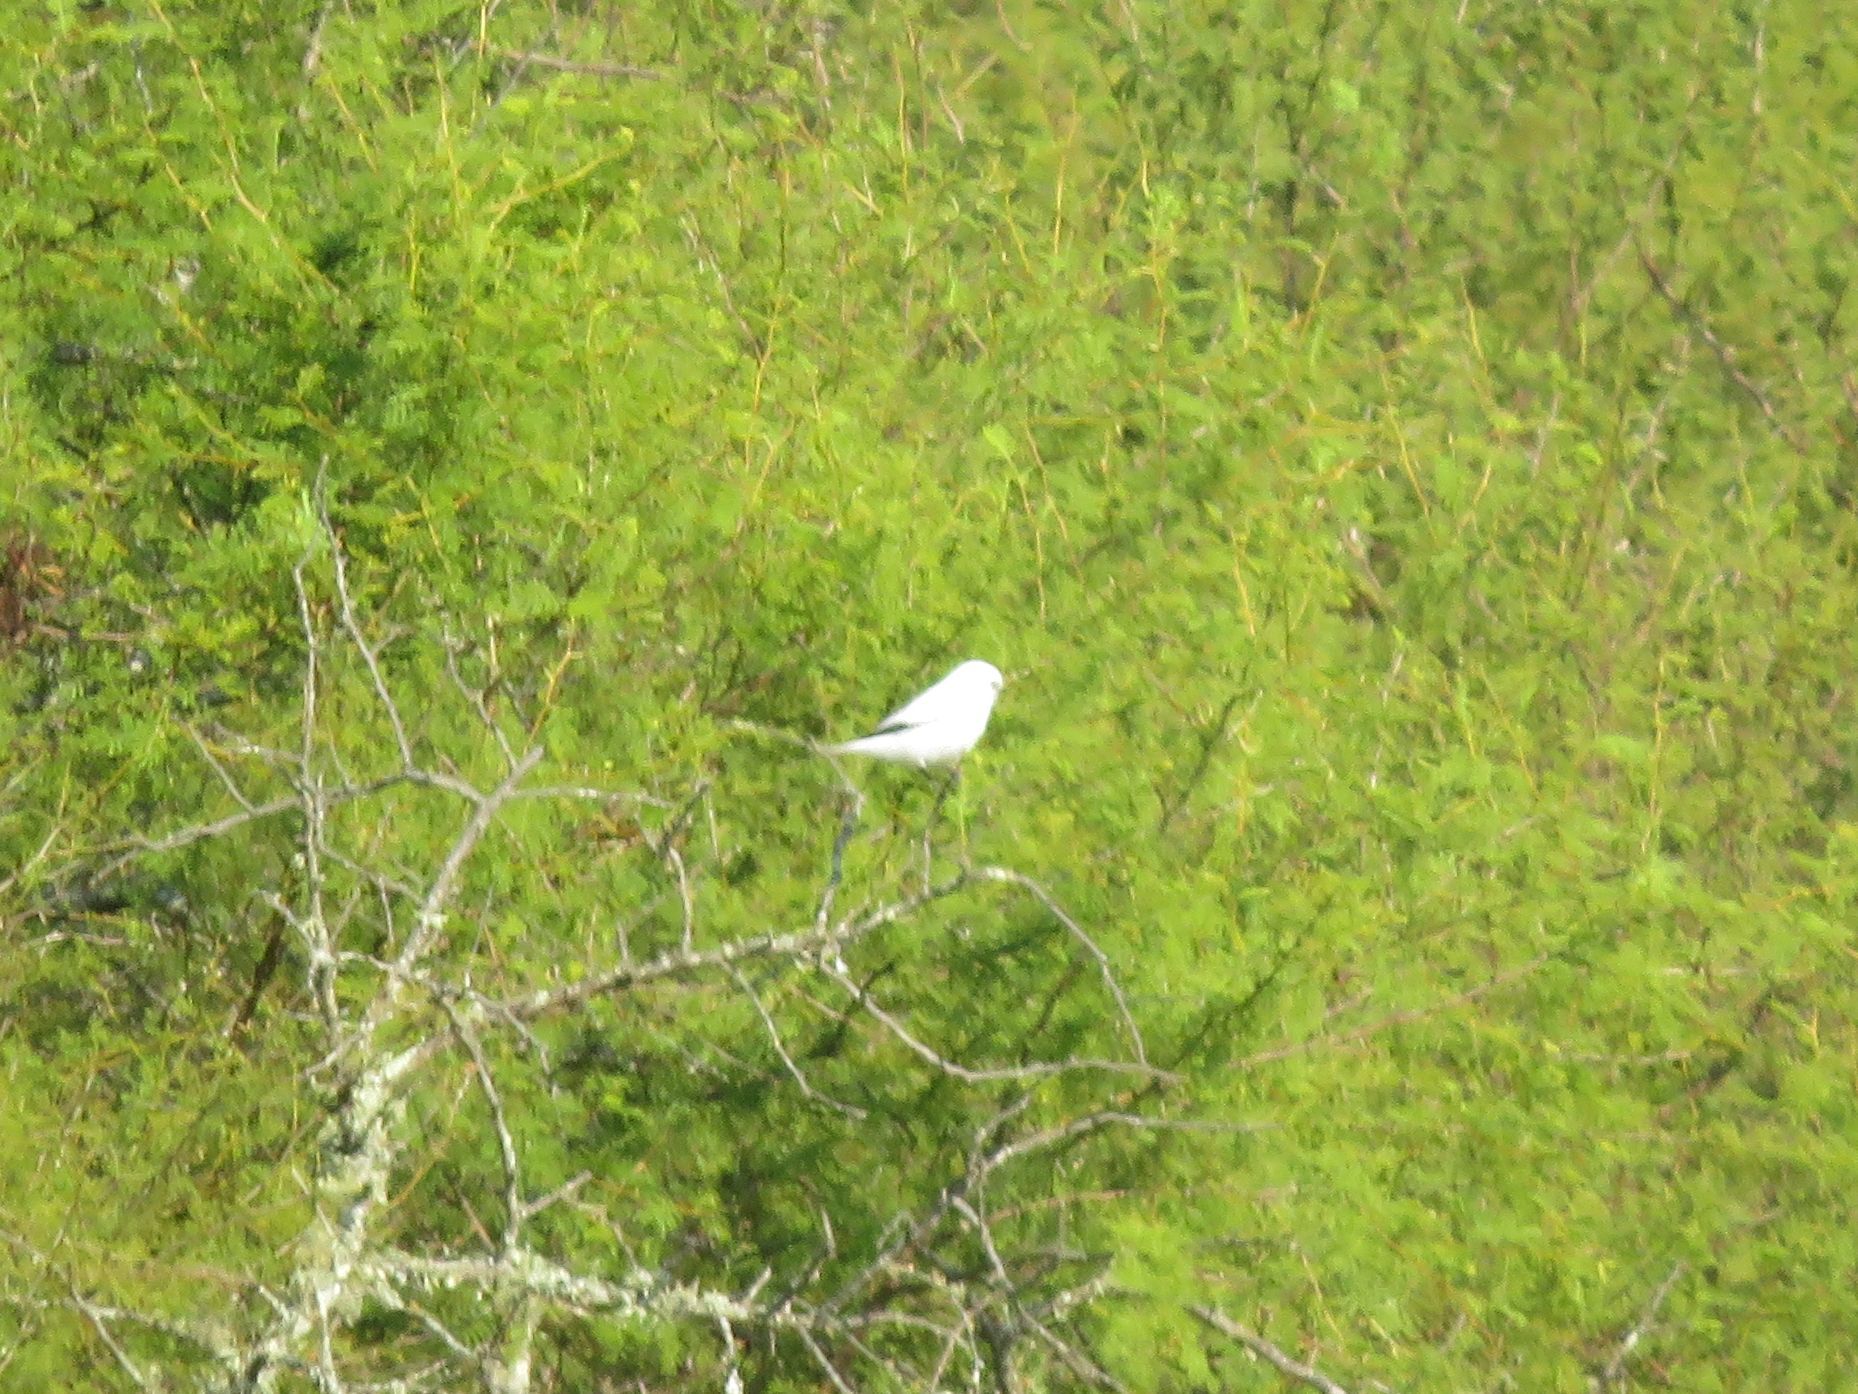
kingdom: Animalia
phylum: Chordata
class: Aves
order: Passeriformes
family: Tyrannidae
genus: Xolmis
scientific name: Xolmis irupero
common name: White monjita
